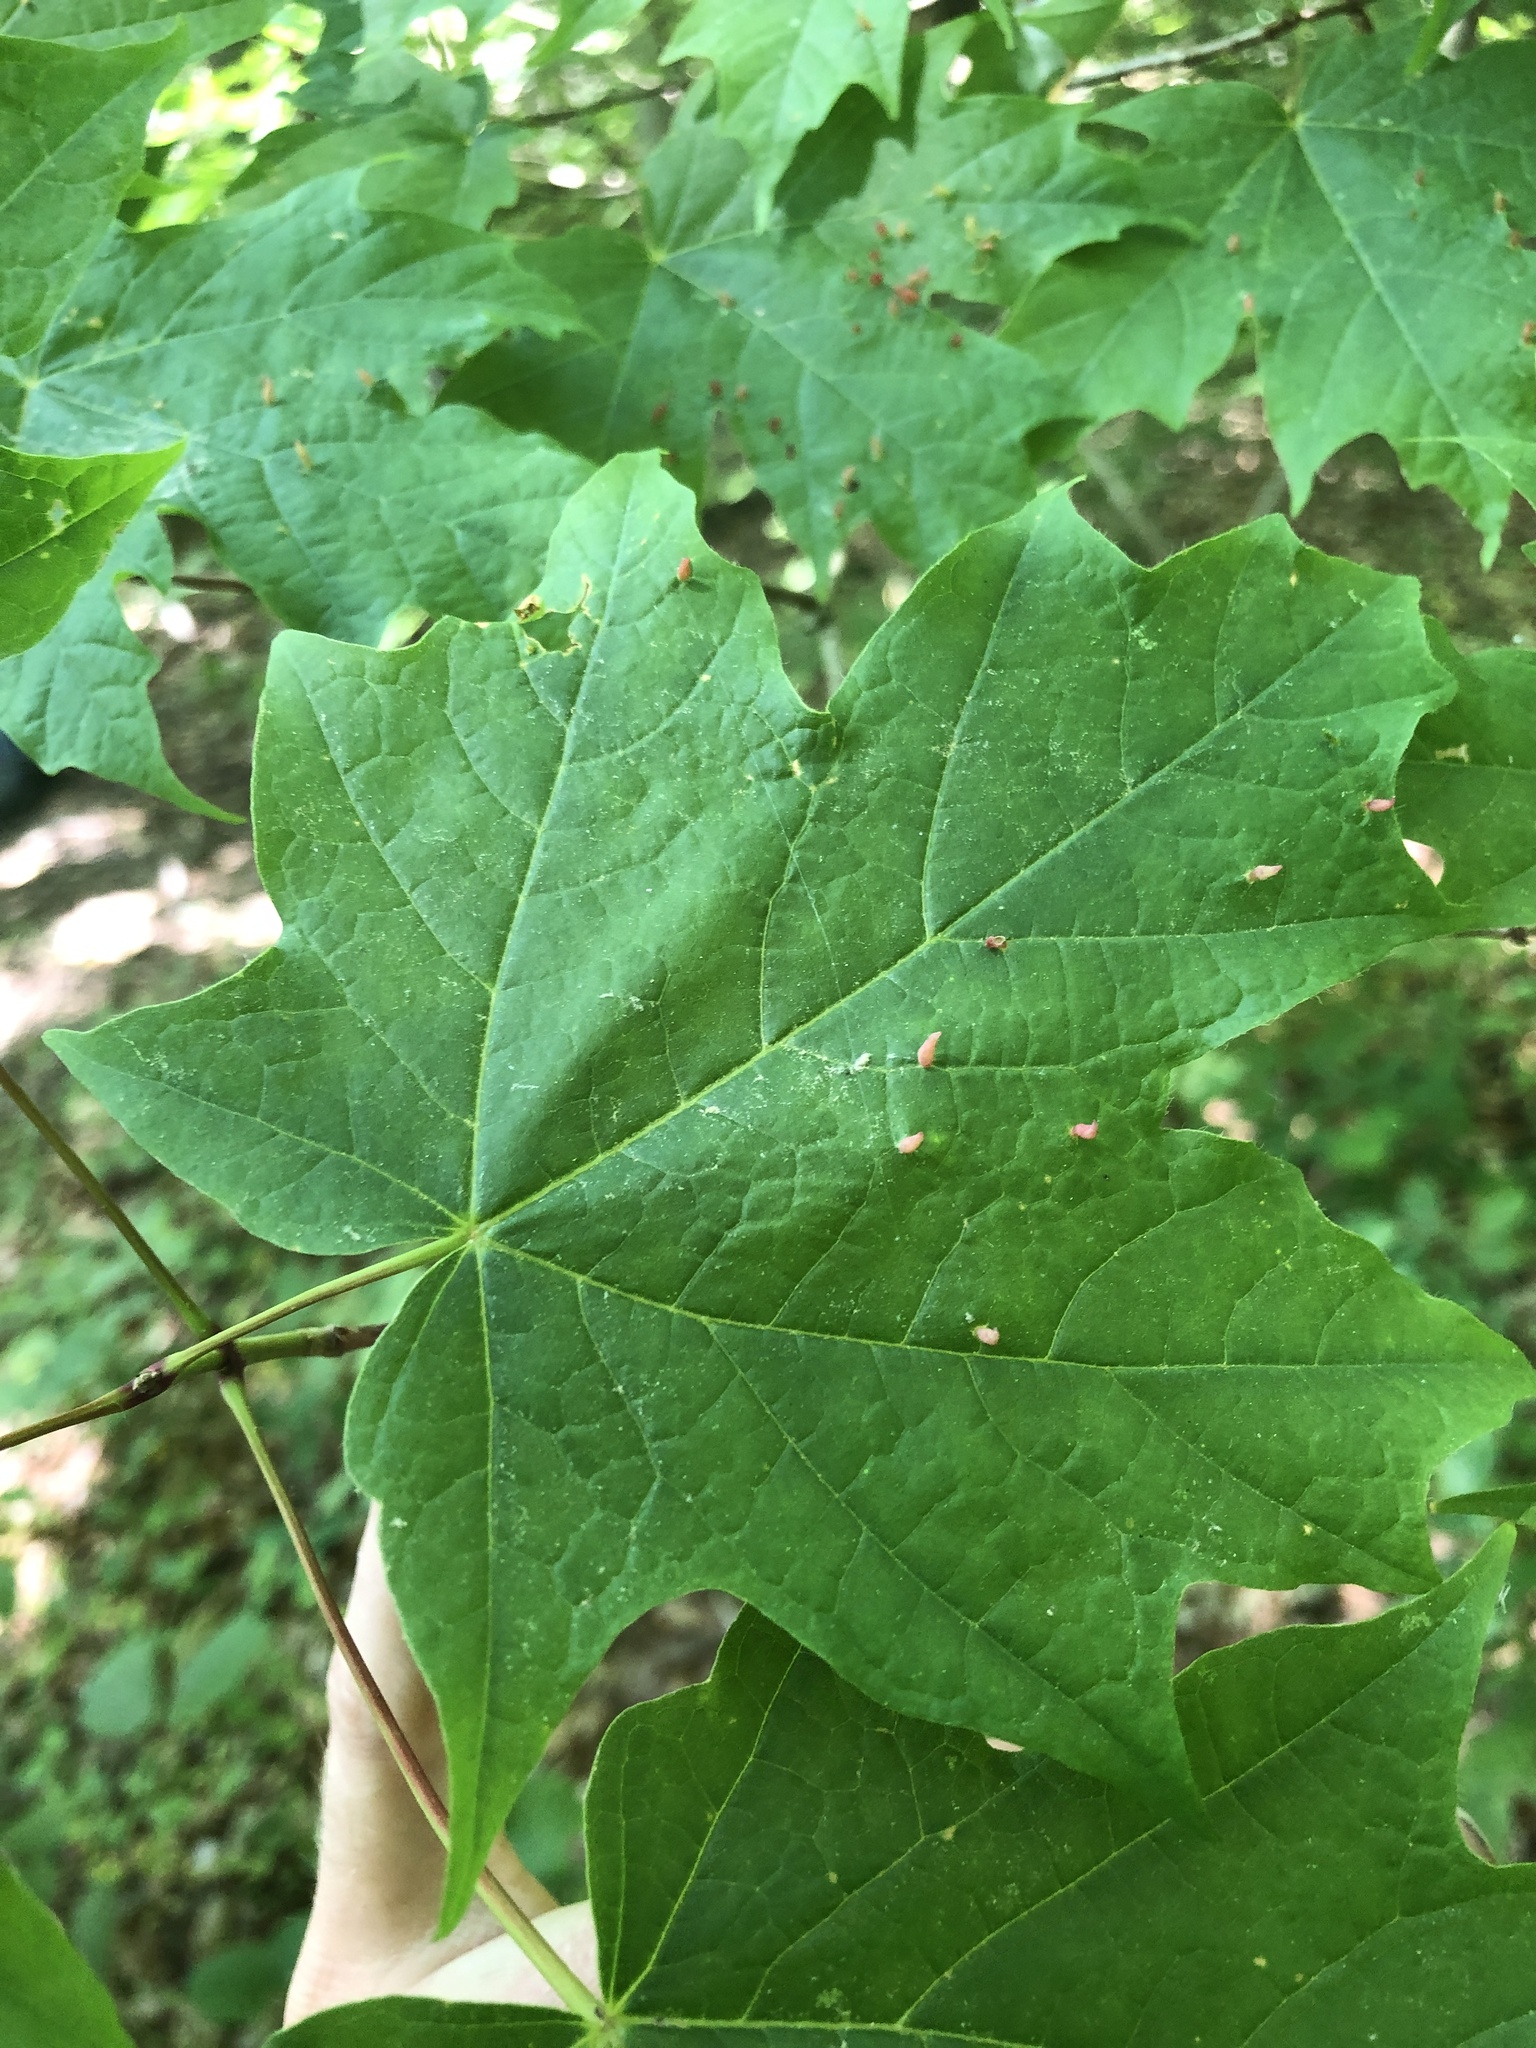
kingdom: Plantae
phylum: Tracheophyta
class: Magnoliopsida
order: Sapindales
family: Sapindaceae
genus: Acer
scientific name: Acer saccharum
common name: Sugar maple
